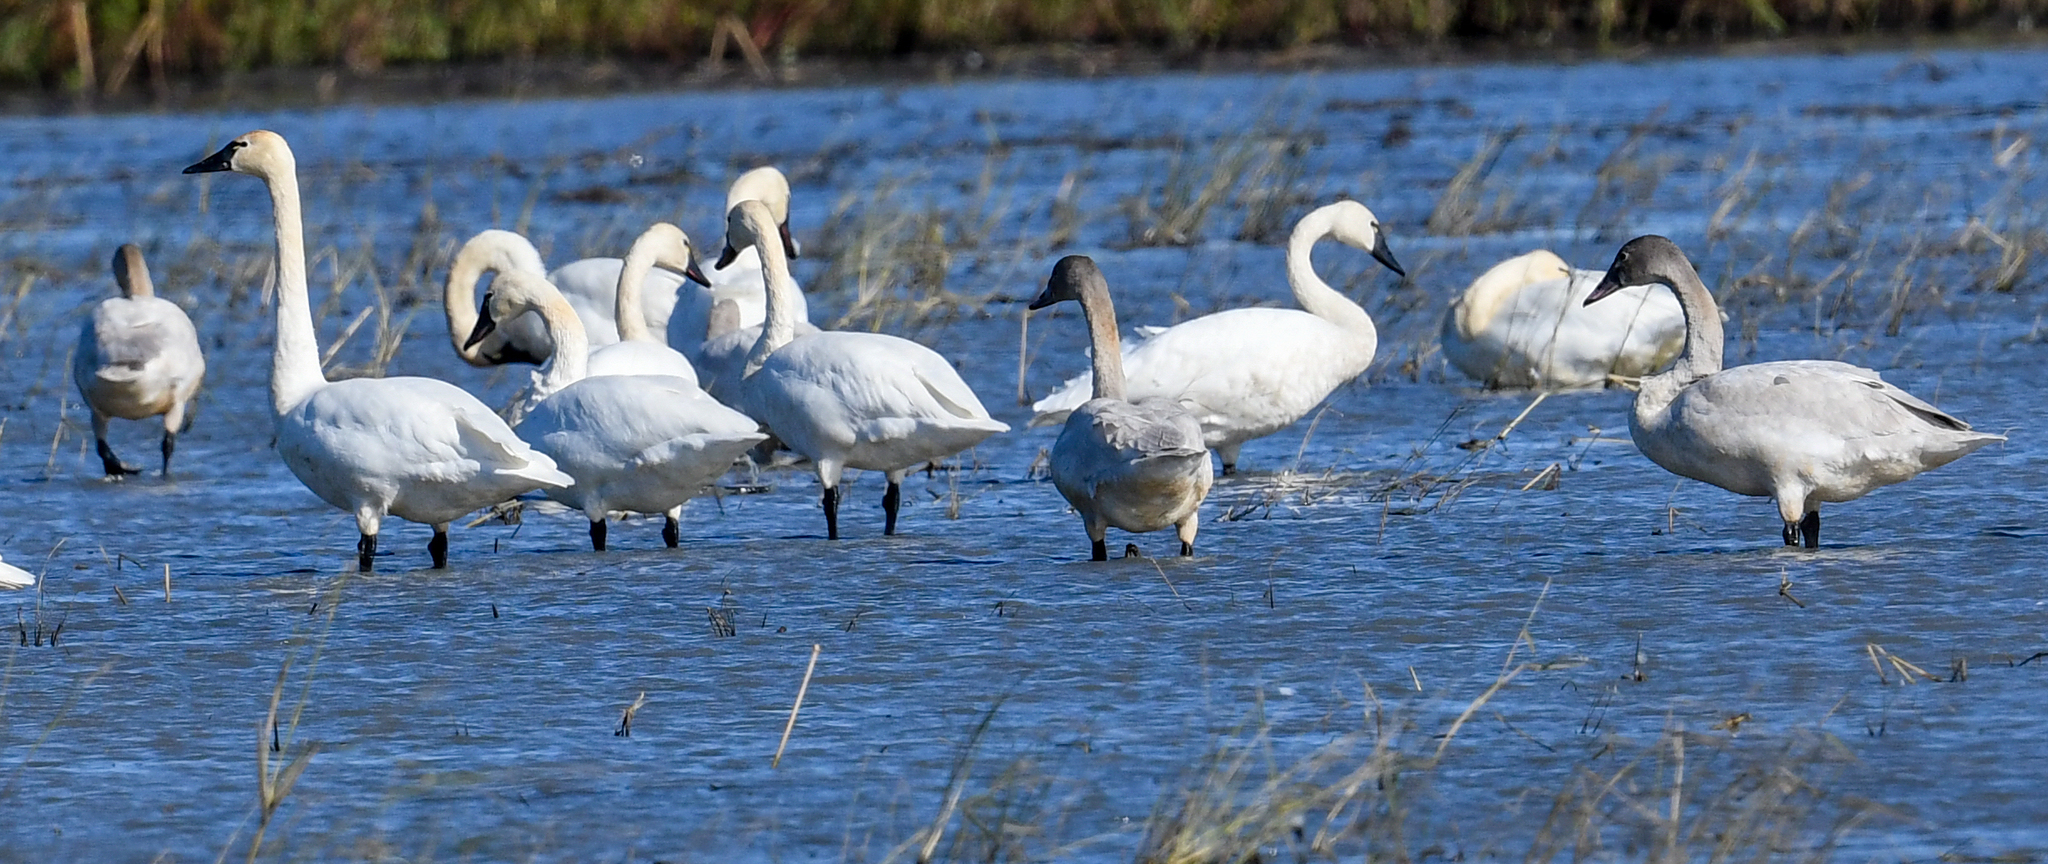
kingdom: Animalia
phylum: Chordata
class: Aves
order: Anseriformes
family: Anatidae
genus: Cygnus
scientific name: Cygnus columbianus
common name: Tundra swan
